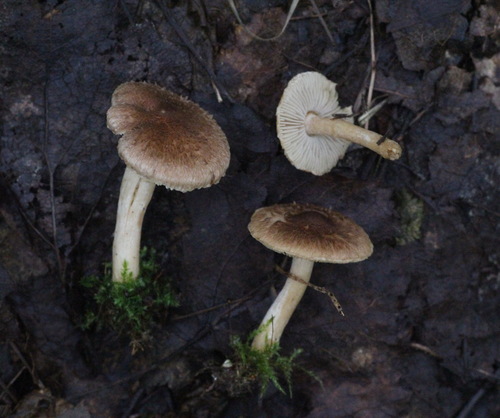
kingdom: Fungi
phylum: Basidiomycota
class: Agaricomycetes
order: Agaricales
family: Inocybaceae
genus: Inocybe
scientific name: Inocybe splendens
